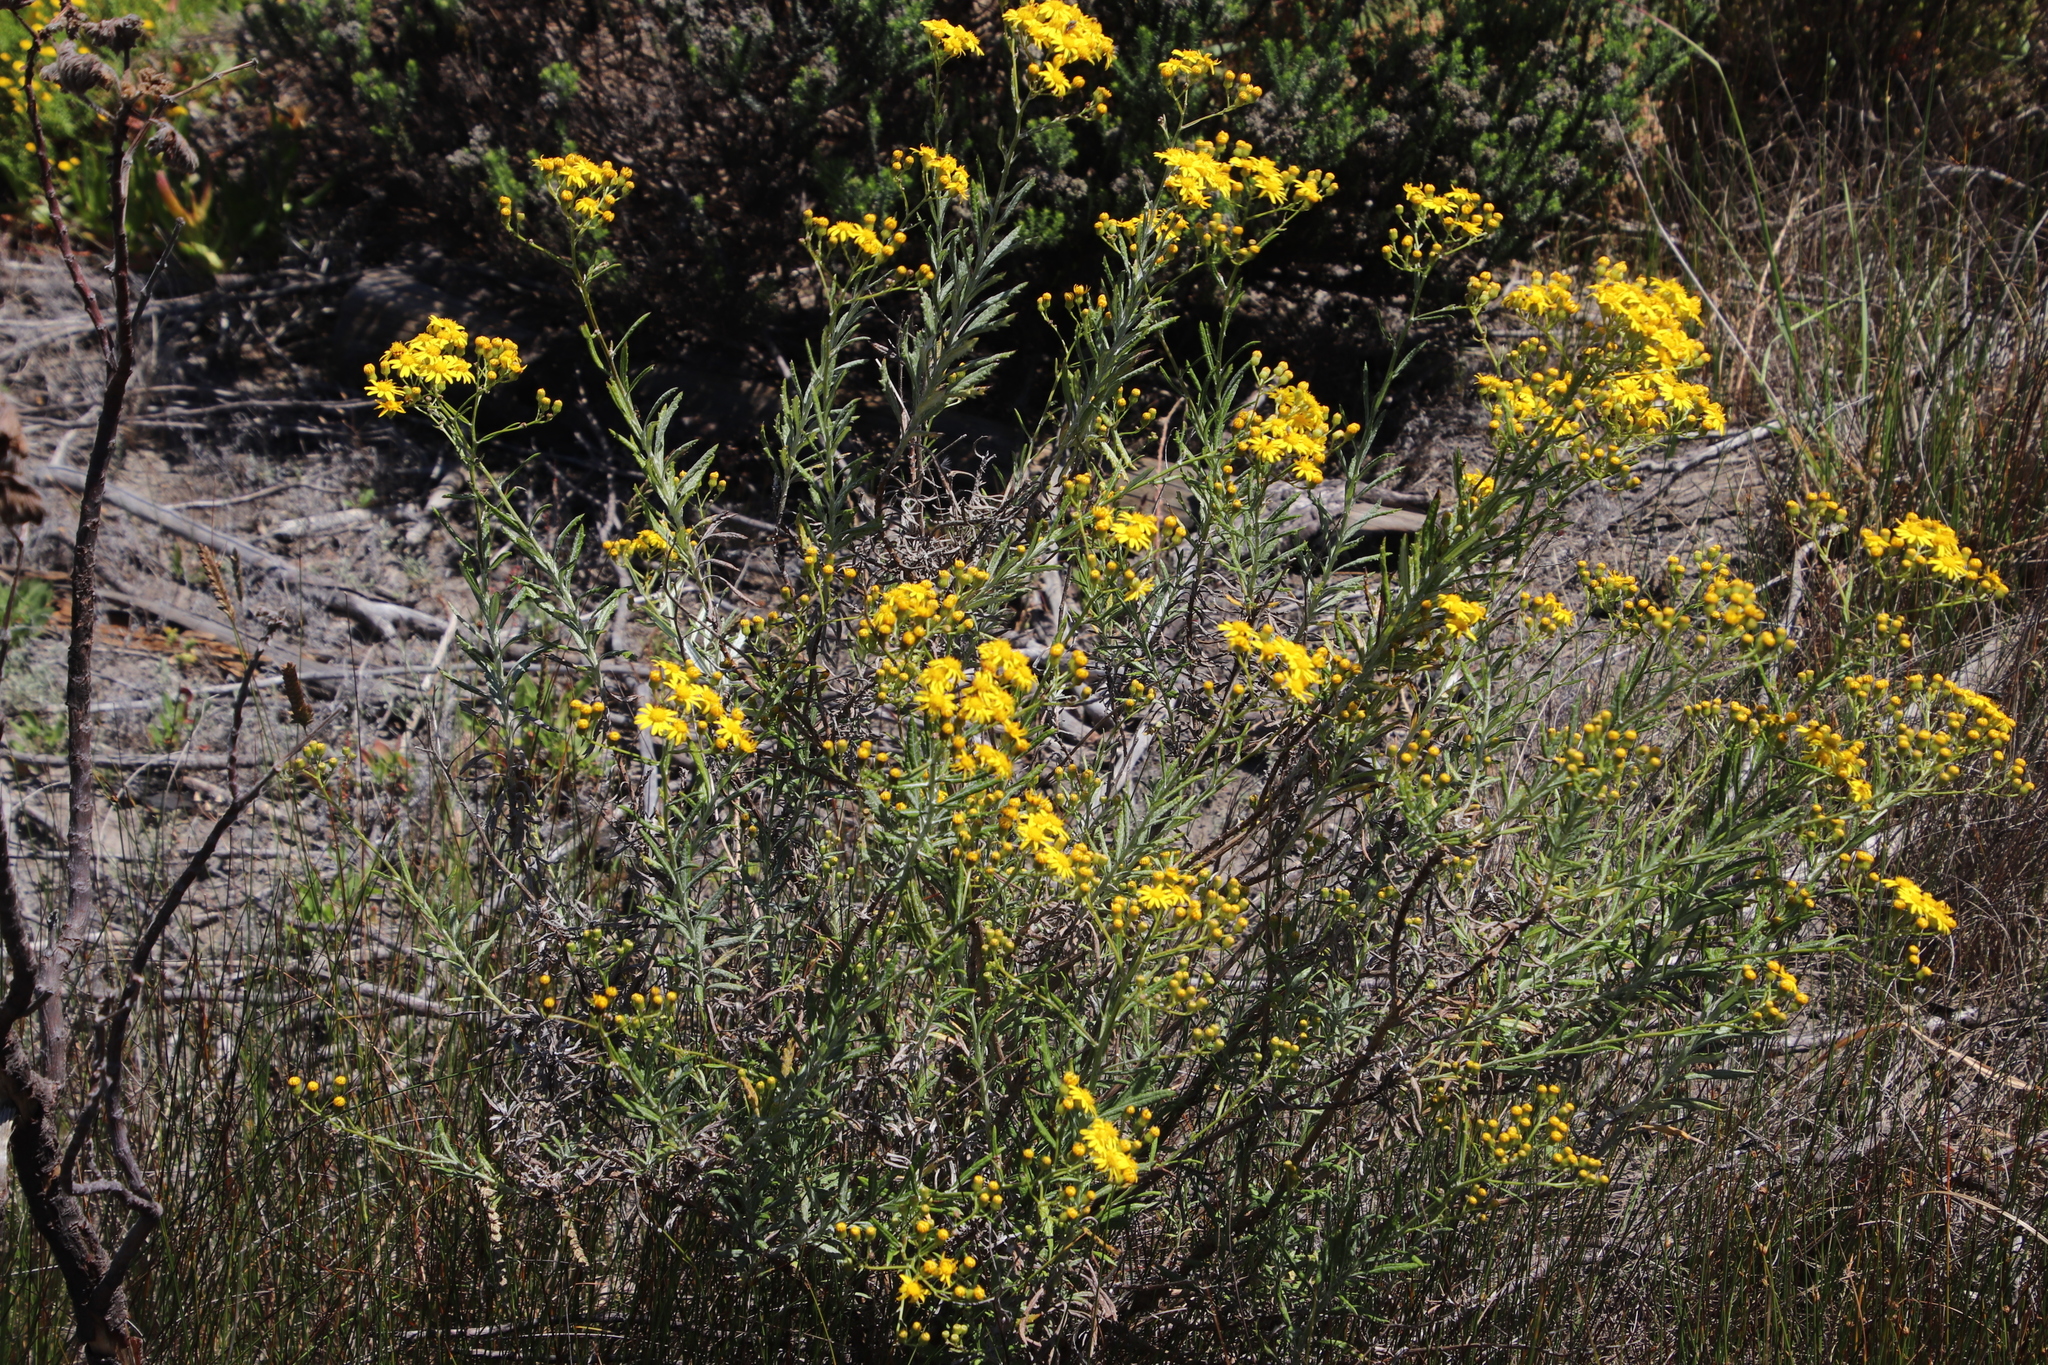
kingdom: Plantae
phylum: Tracheophyta
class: Magnoliopsida
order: Asterales
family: Asteraceae
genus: Senecio
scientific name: Senecio pterophorus
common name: Shoddy ragwort
